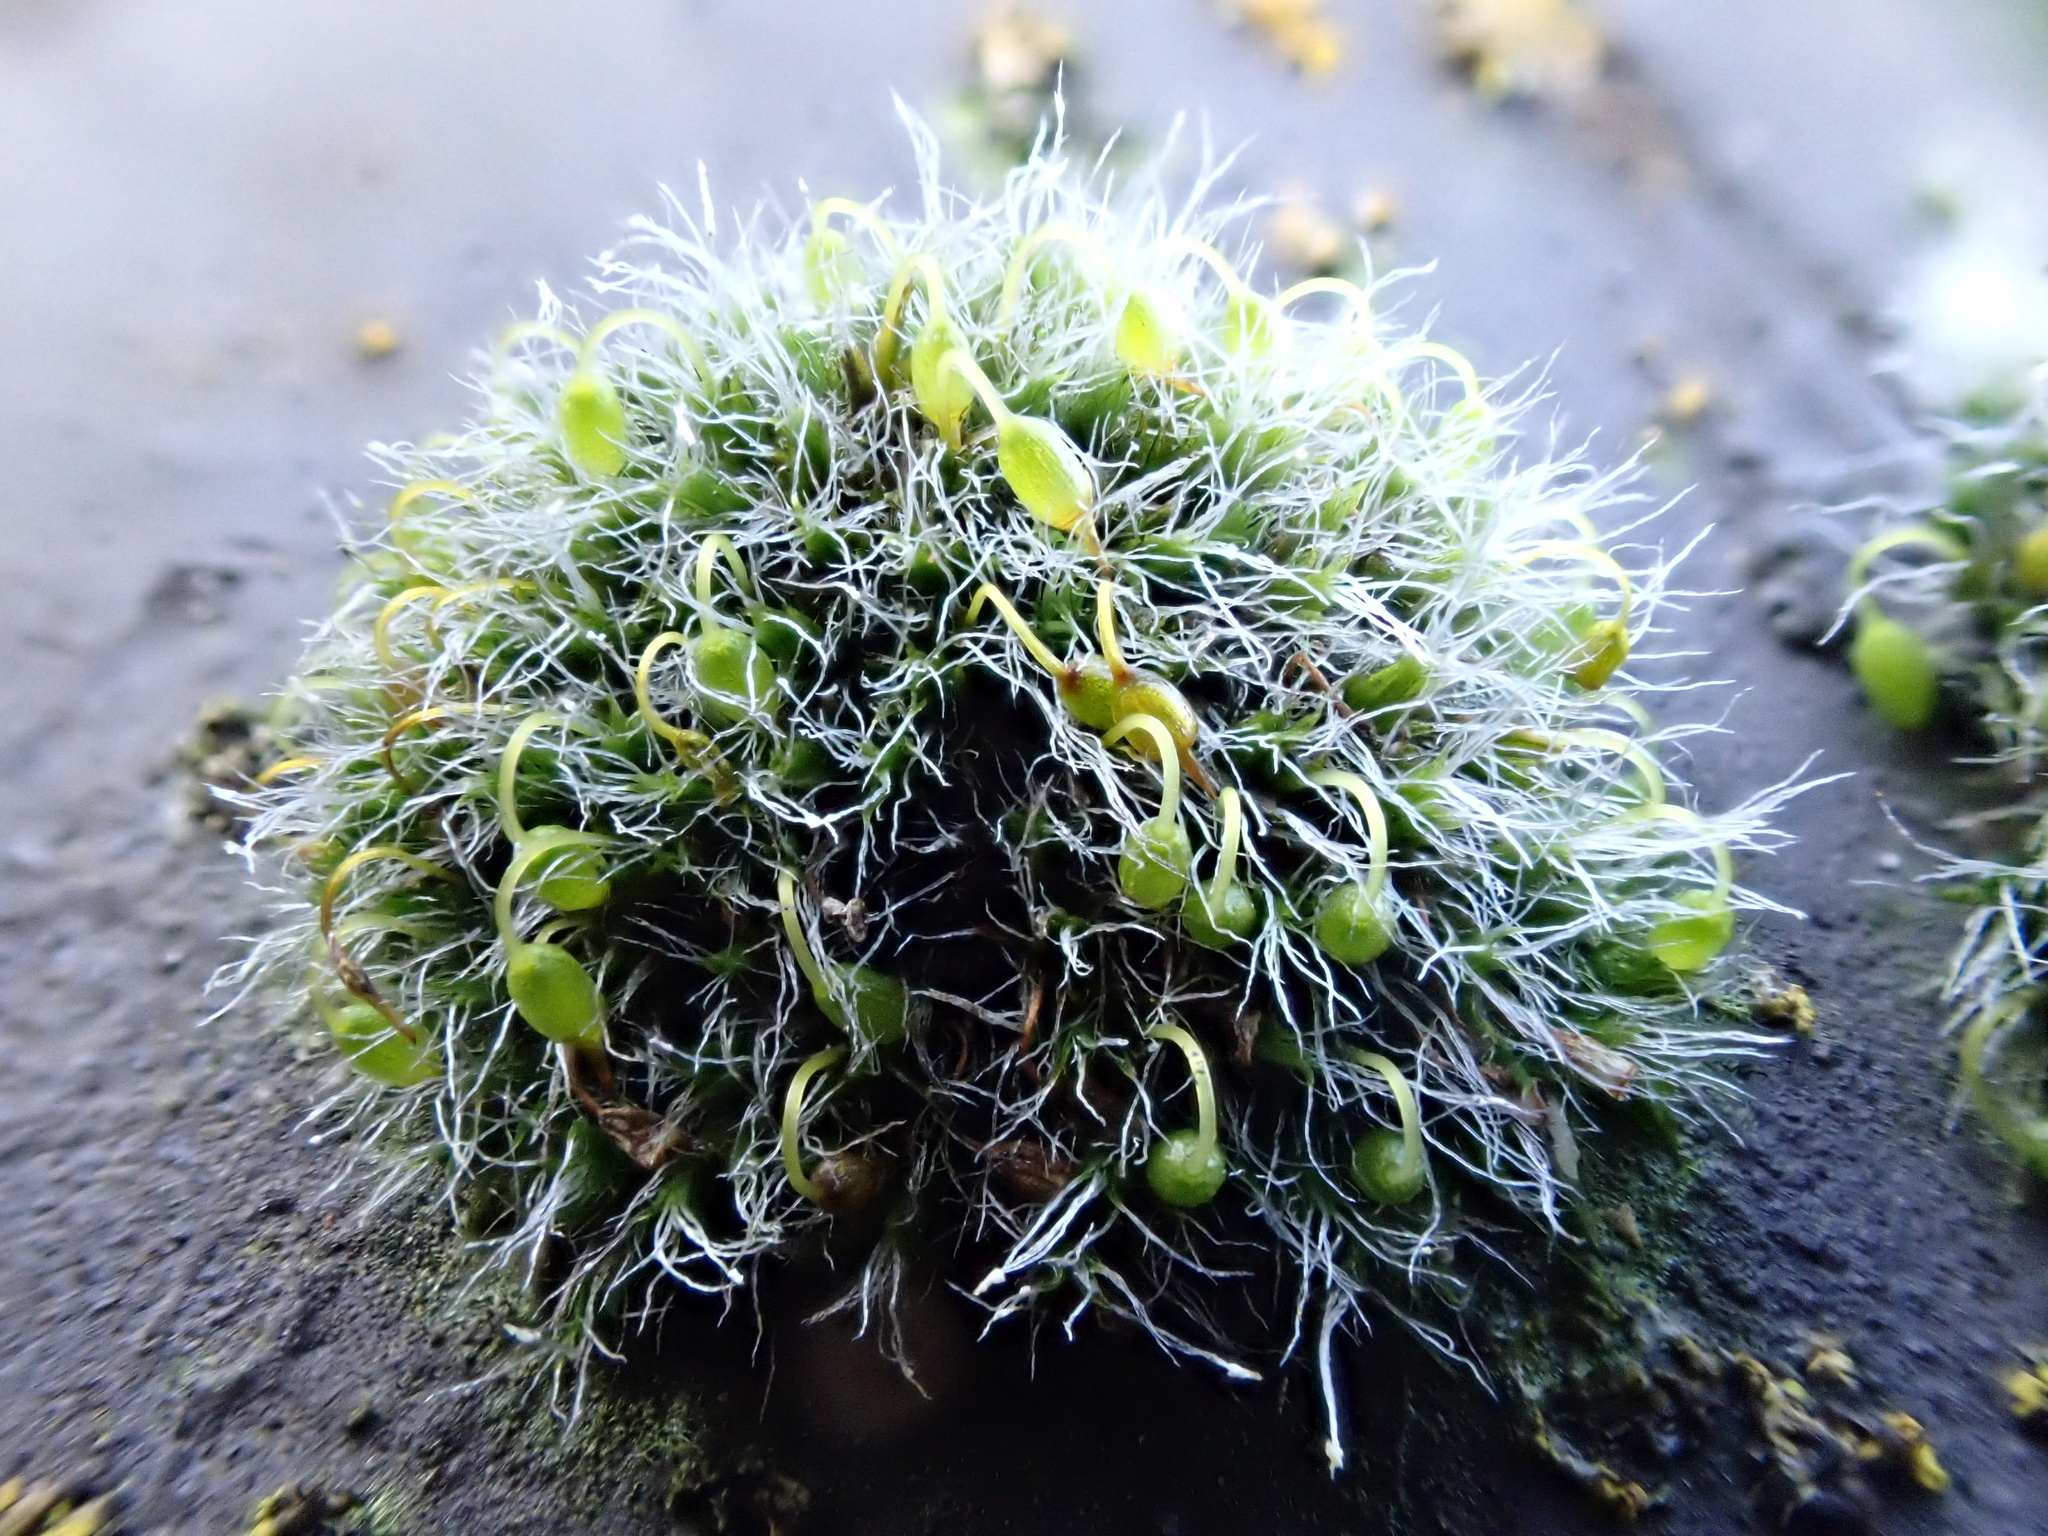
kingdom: Plantae
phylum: Bryophyta
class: Bryopsida
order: Grimmiales
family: Grimmiaceae
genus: Grimmia
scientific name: Grimmia pulvinata
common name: Grey-cushioned grimmia
